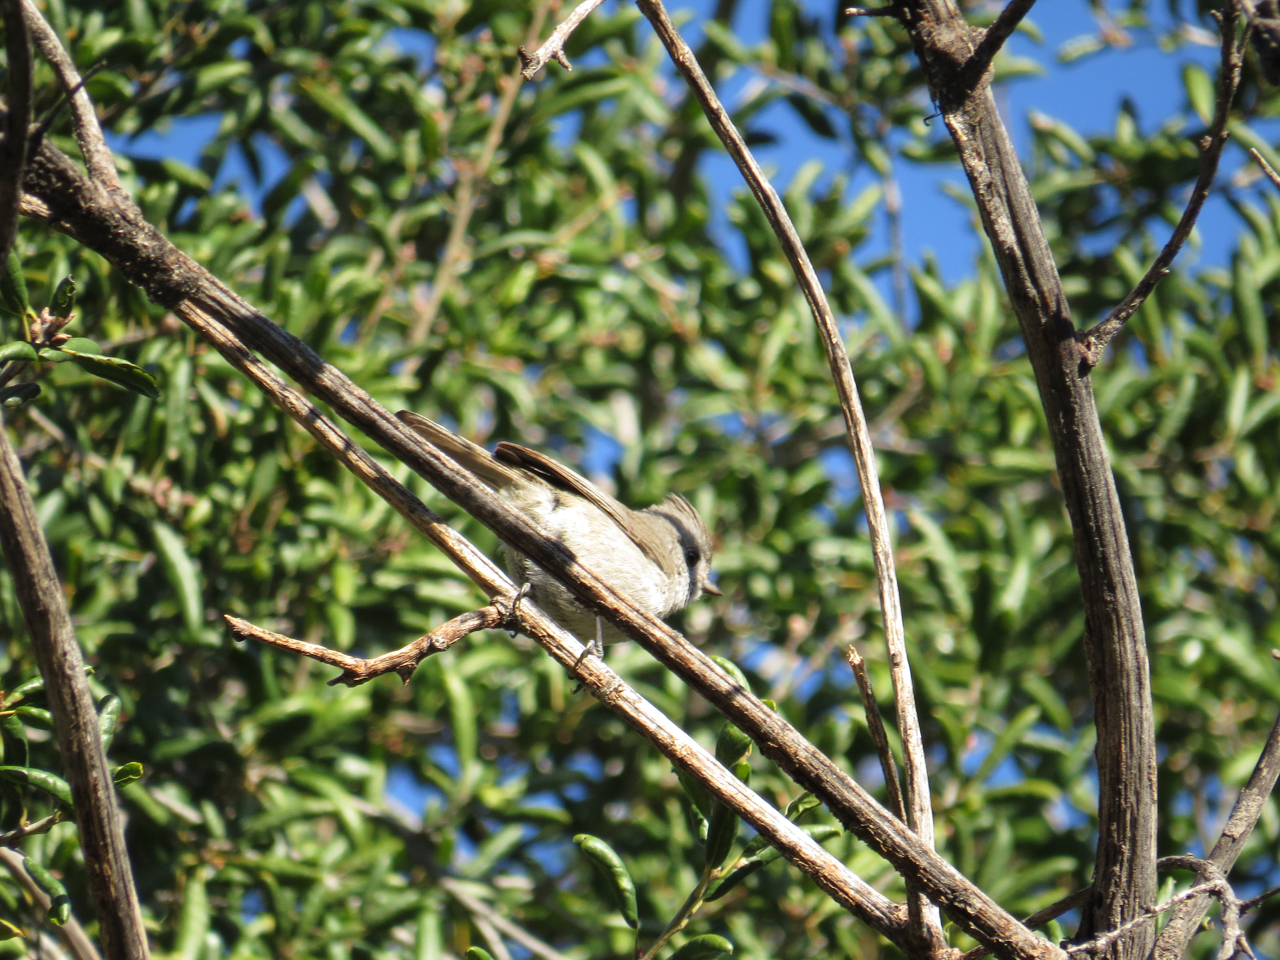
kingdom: Animalia
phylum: Chordata
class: Aves
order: Passeriformes
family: Paridae
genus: Baeolophus
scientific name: Baeolophus inornatus
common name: Oak titmouse
